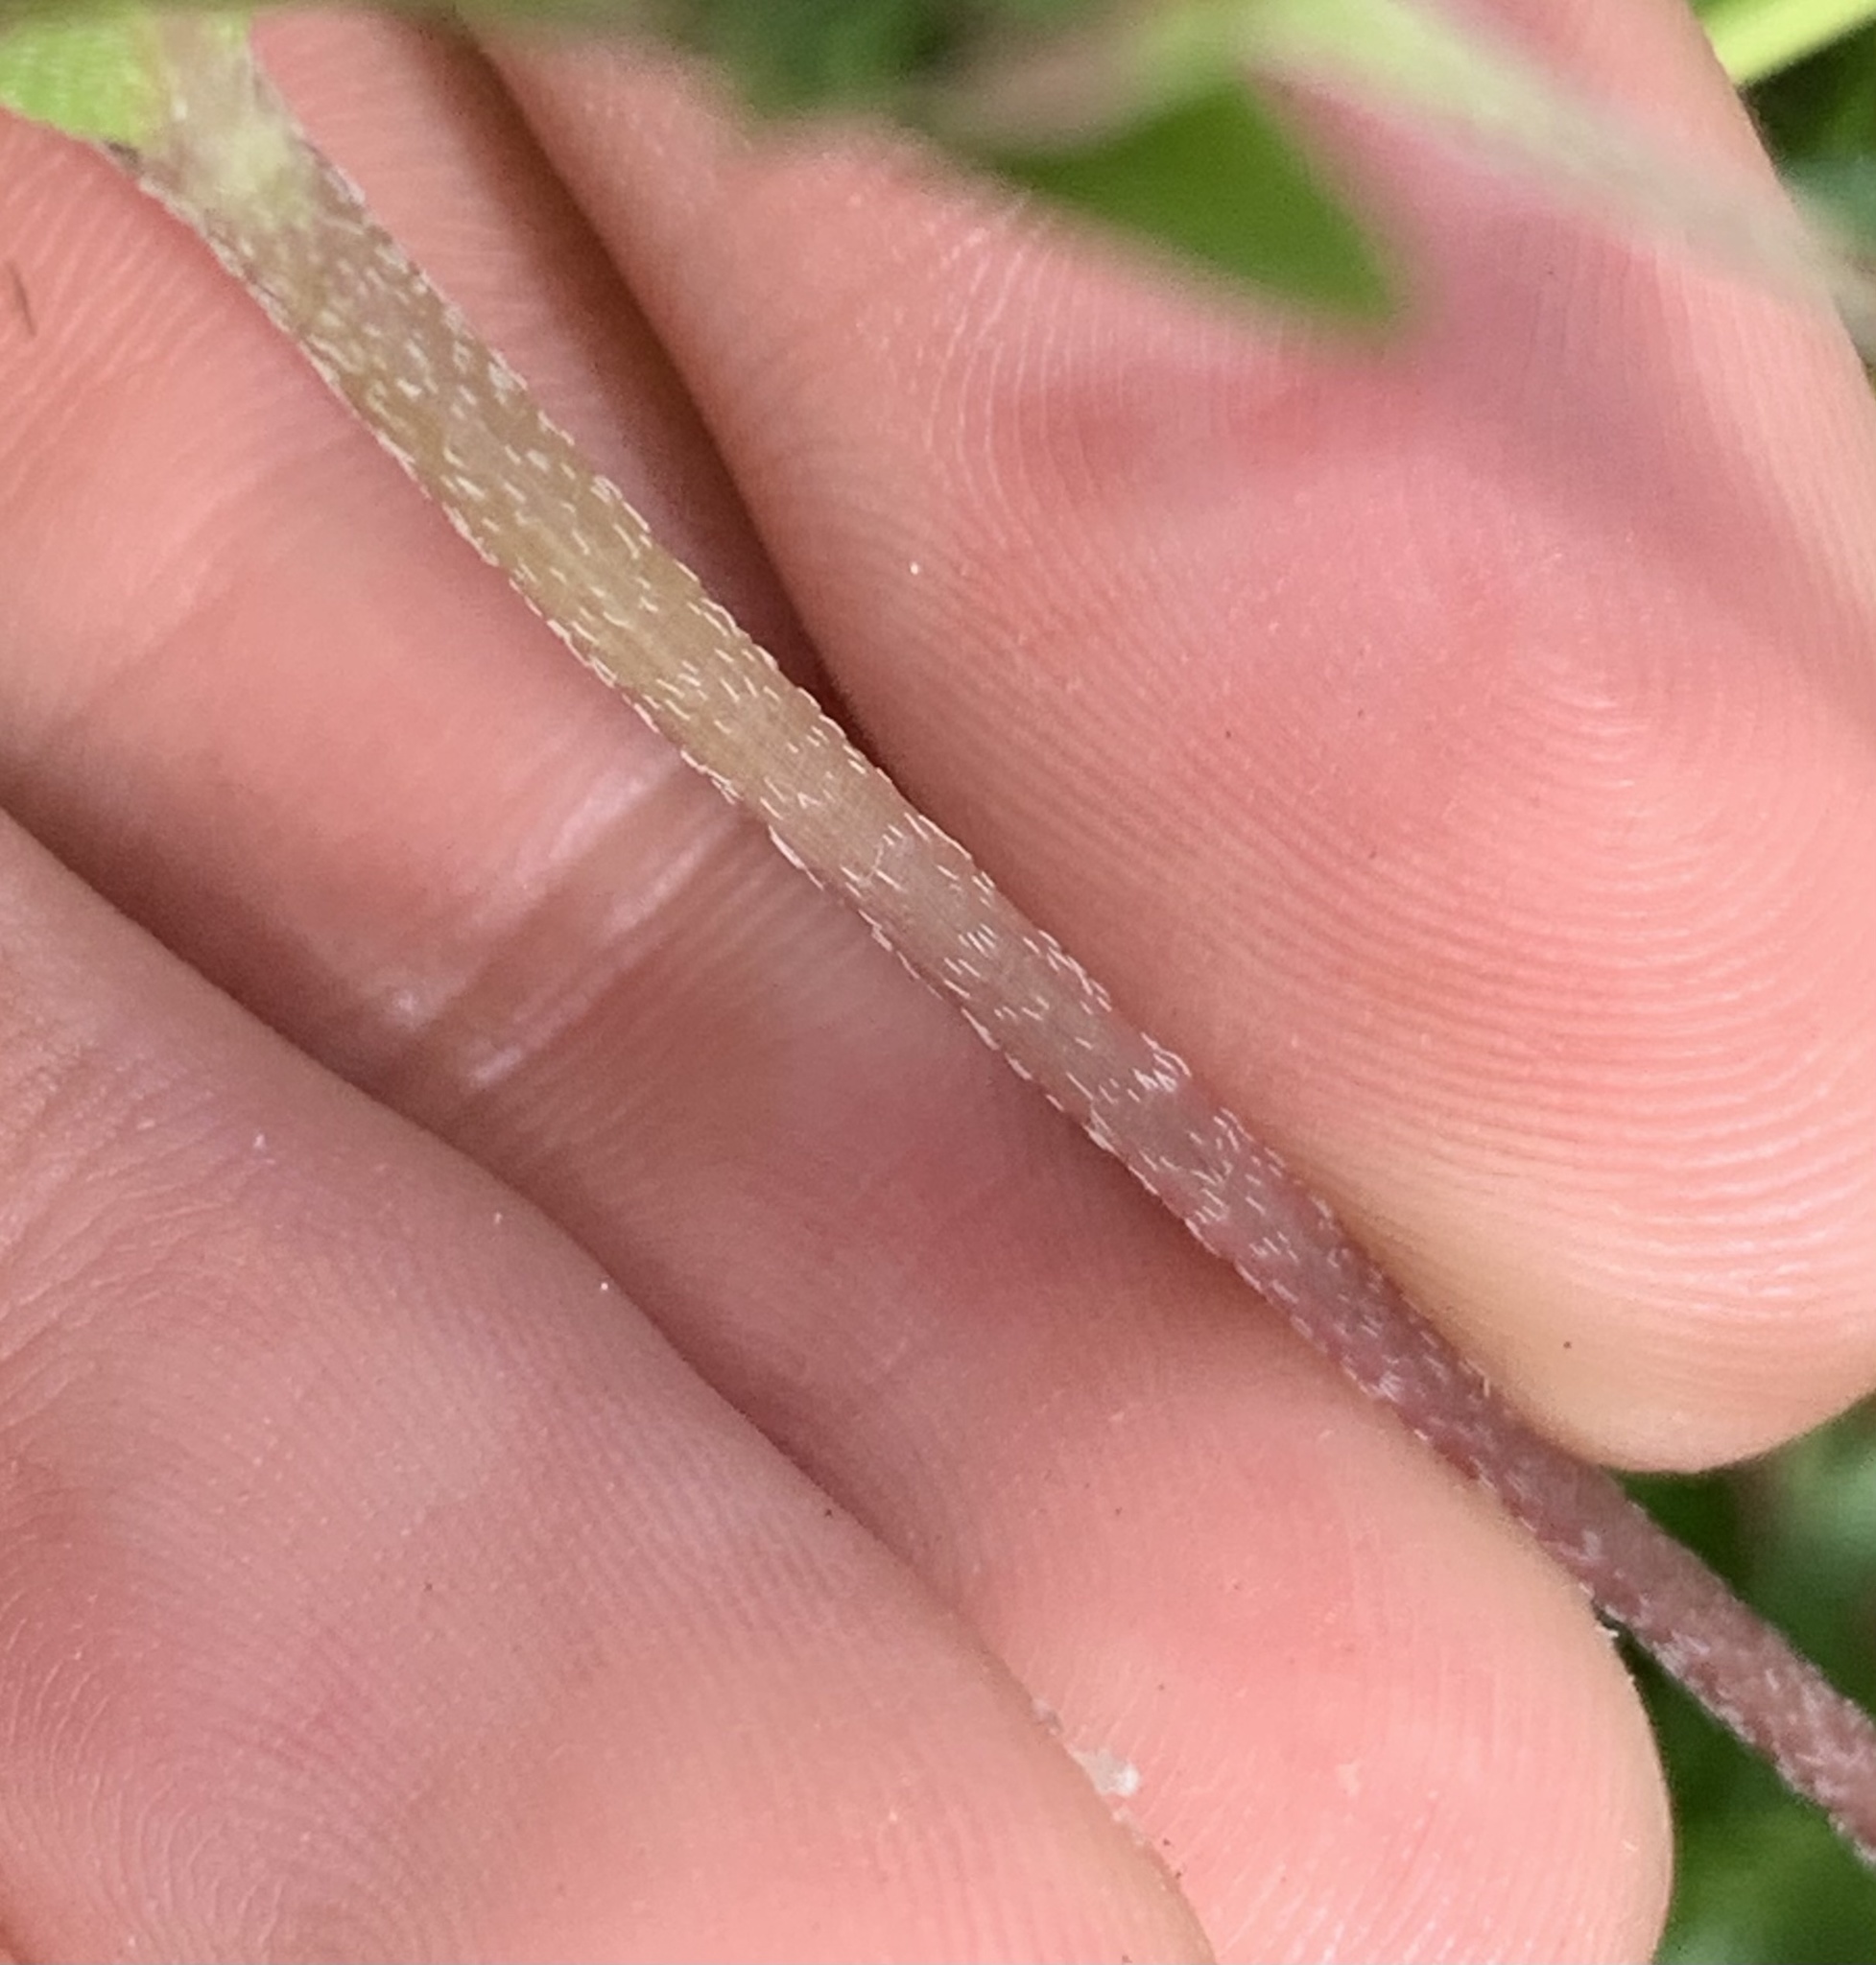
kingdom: Plantae
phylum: Tracheophyta
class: Magnoliopsida
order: Asterales
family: Asteraceae
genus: Eclipta
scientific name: Eclipta prostrata
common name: False daisy
